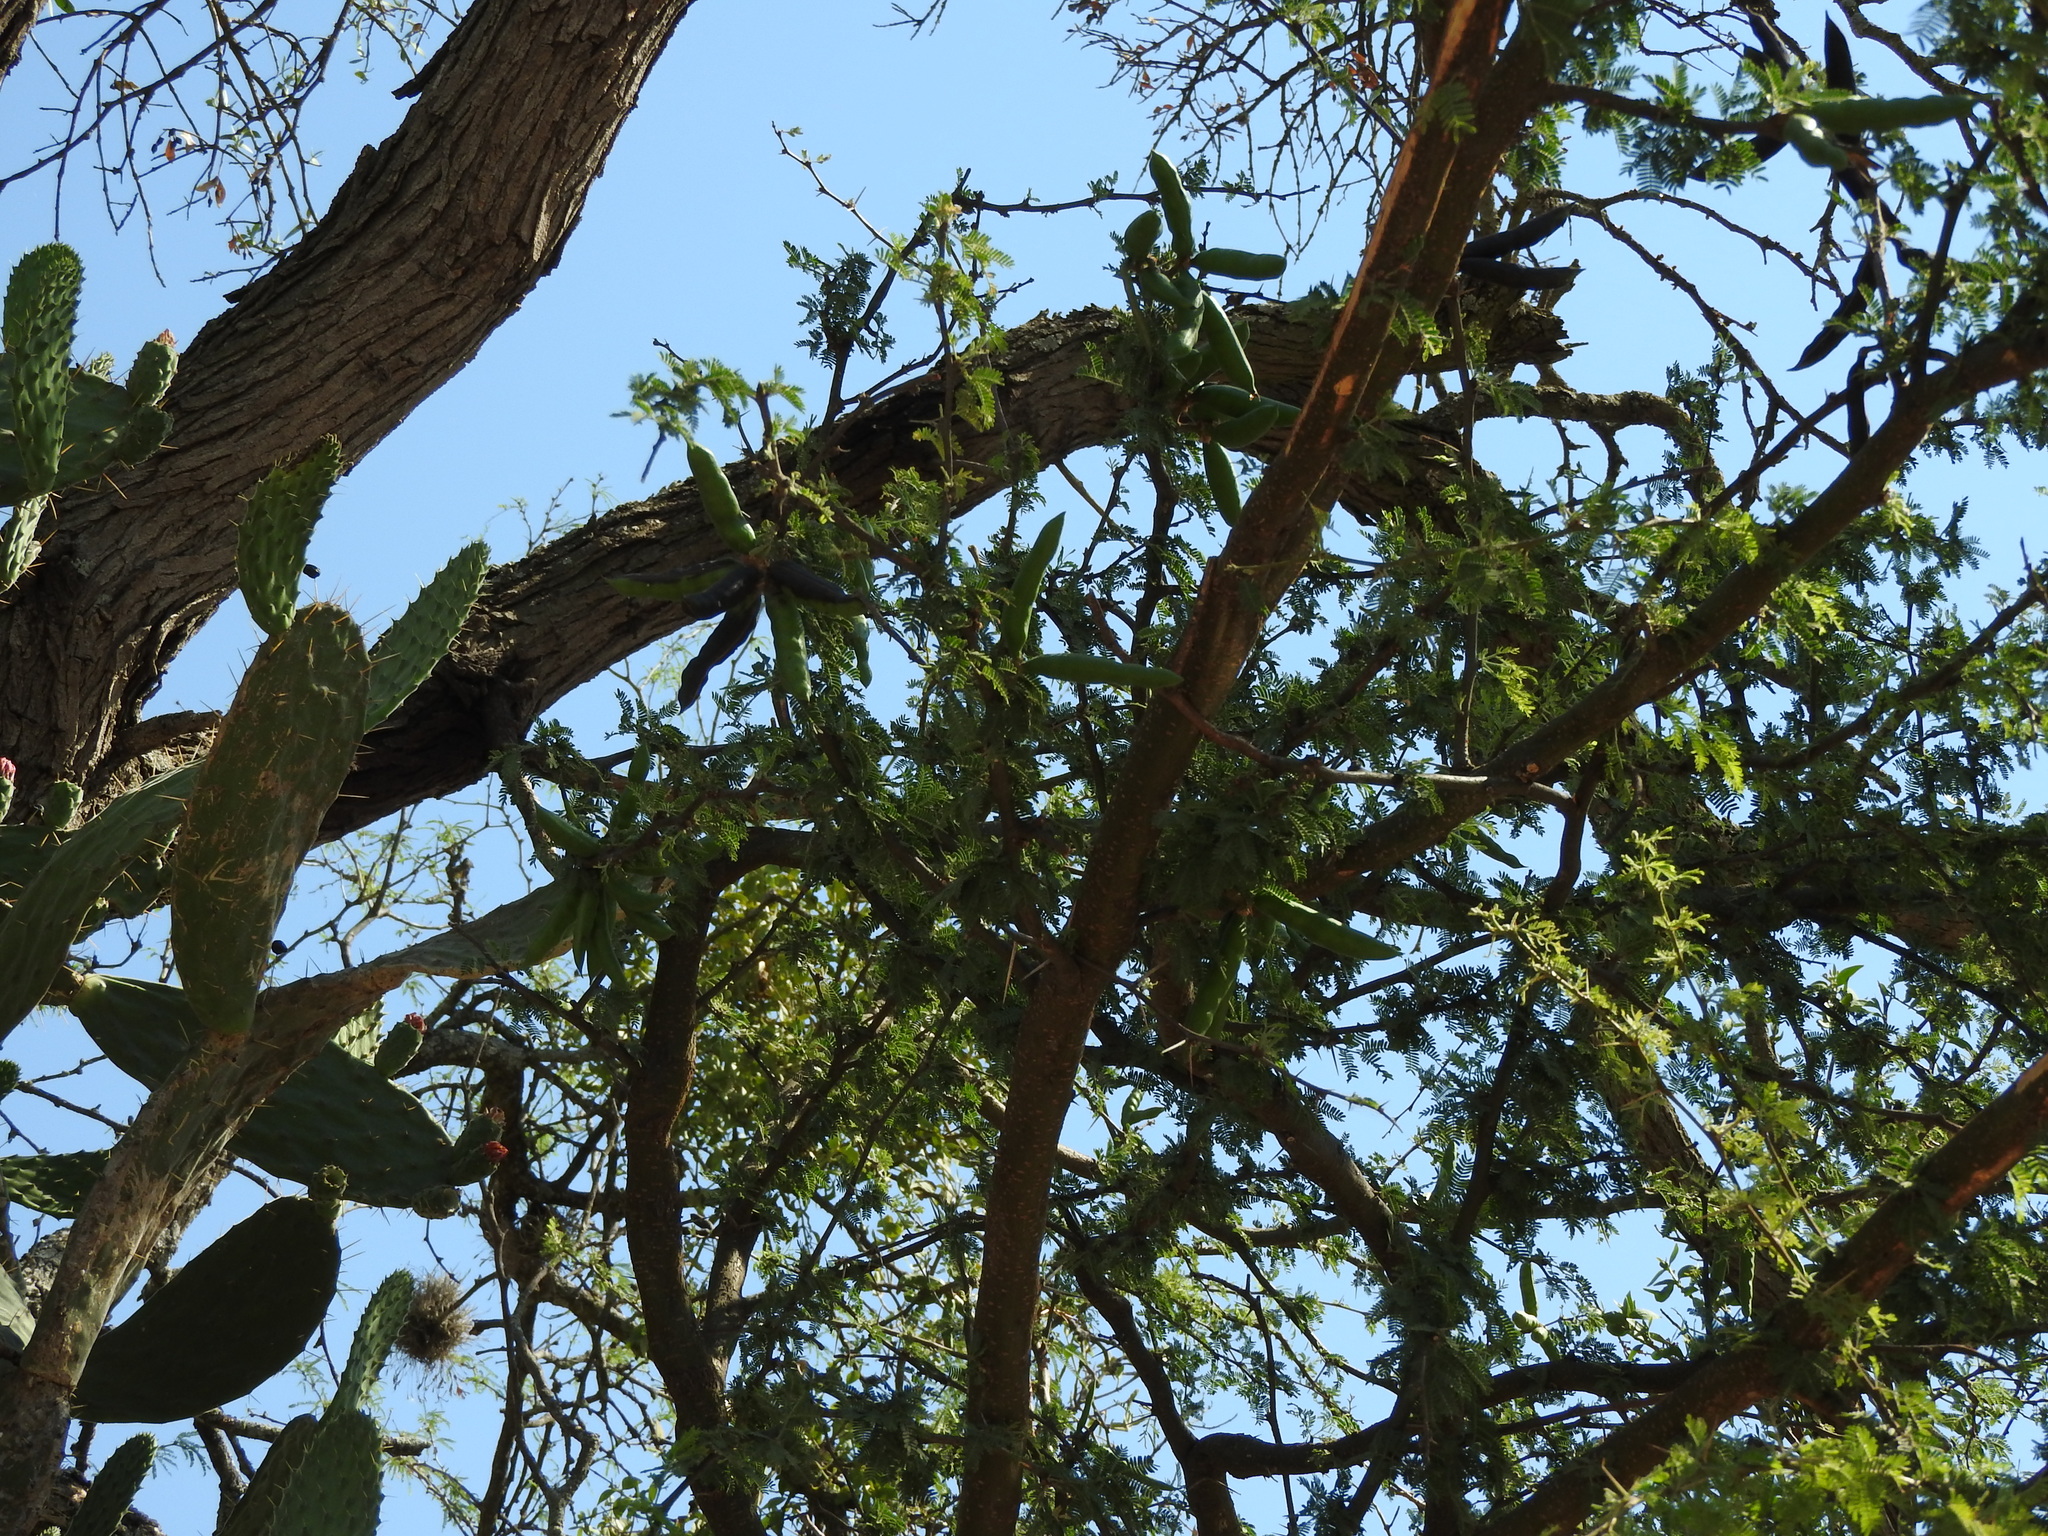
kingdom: Plantae
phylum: Tracheophyta
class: Magnoliopsida
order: Fabales
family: Fabaceae
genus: Vachellia
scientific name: Vachellia farnesiana
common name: Sweet acacia
